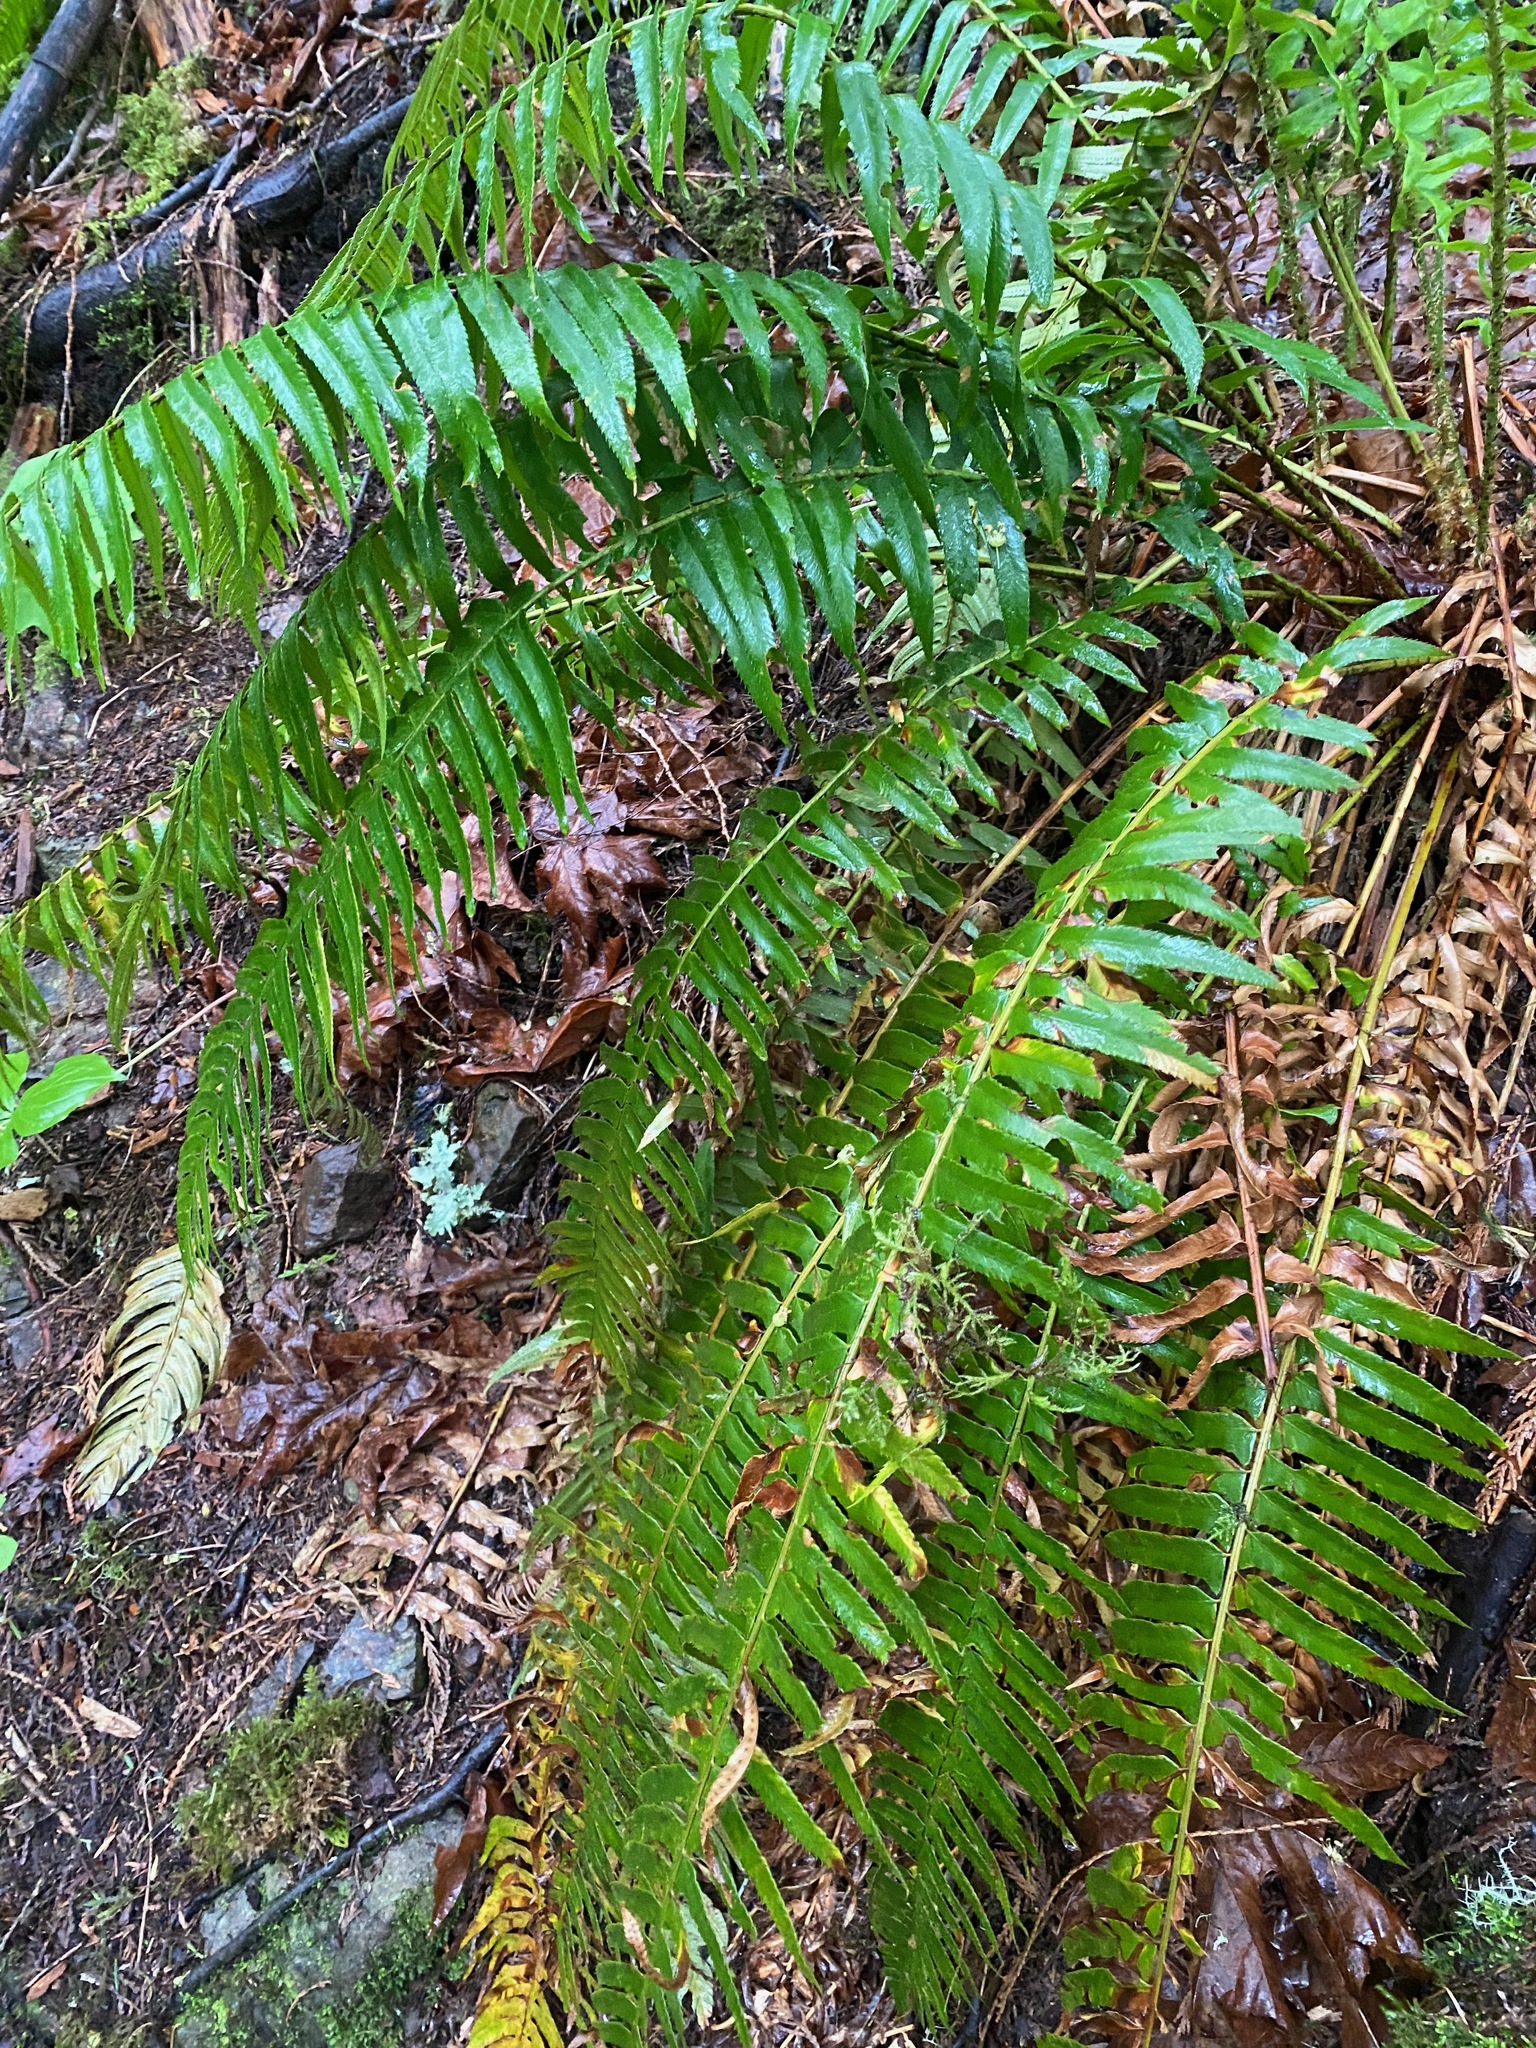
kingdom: Plantae
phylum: Tracheophyta
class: Polypodiopsida
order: Polypodiales
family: Dryopteridaceae
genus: Polystichum
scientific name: Polystichum munitum
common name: Western sword-fern
